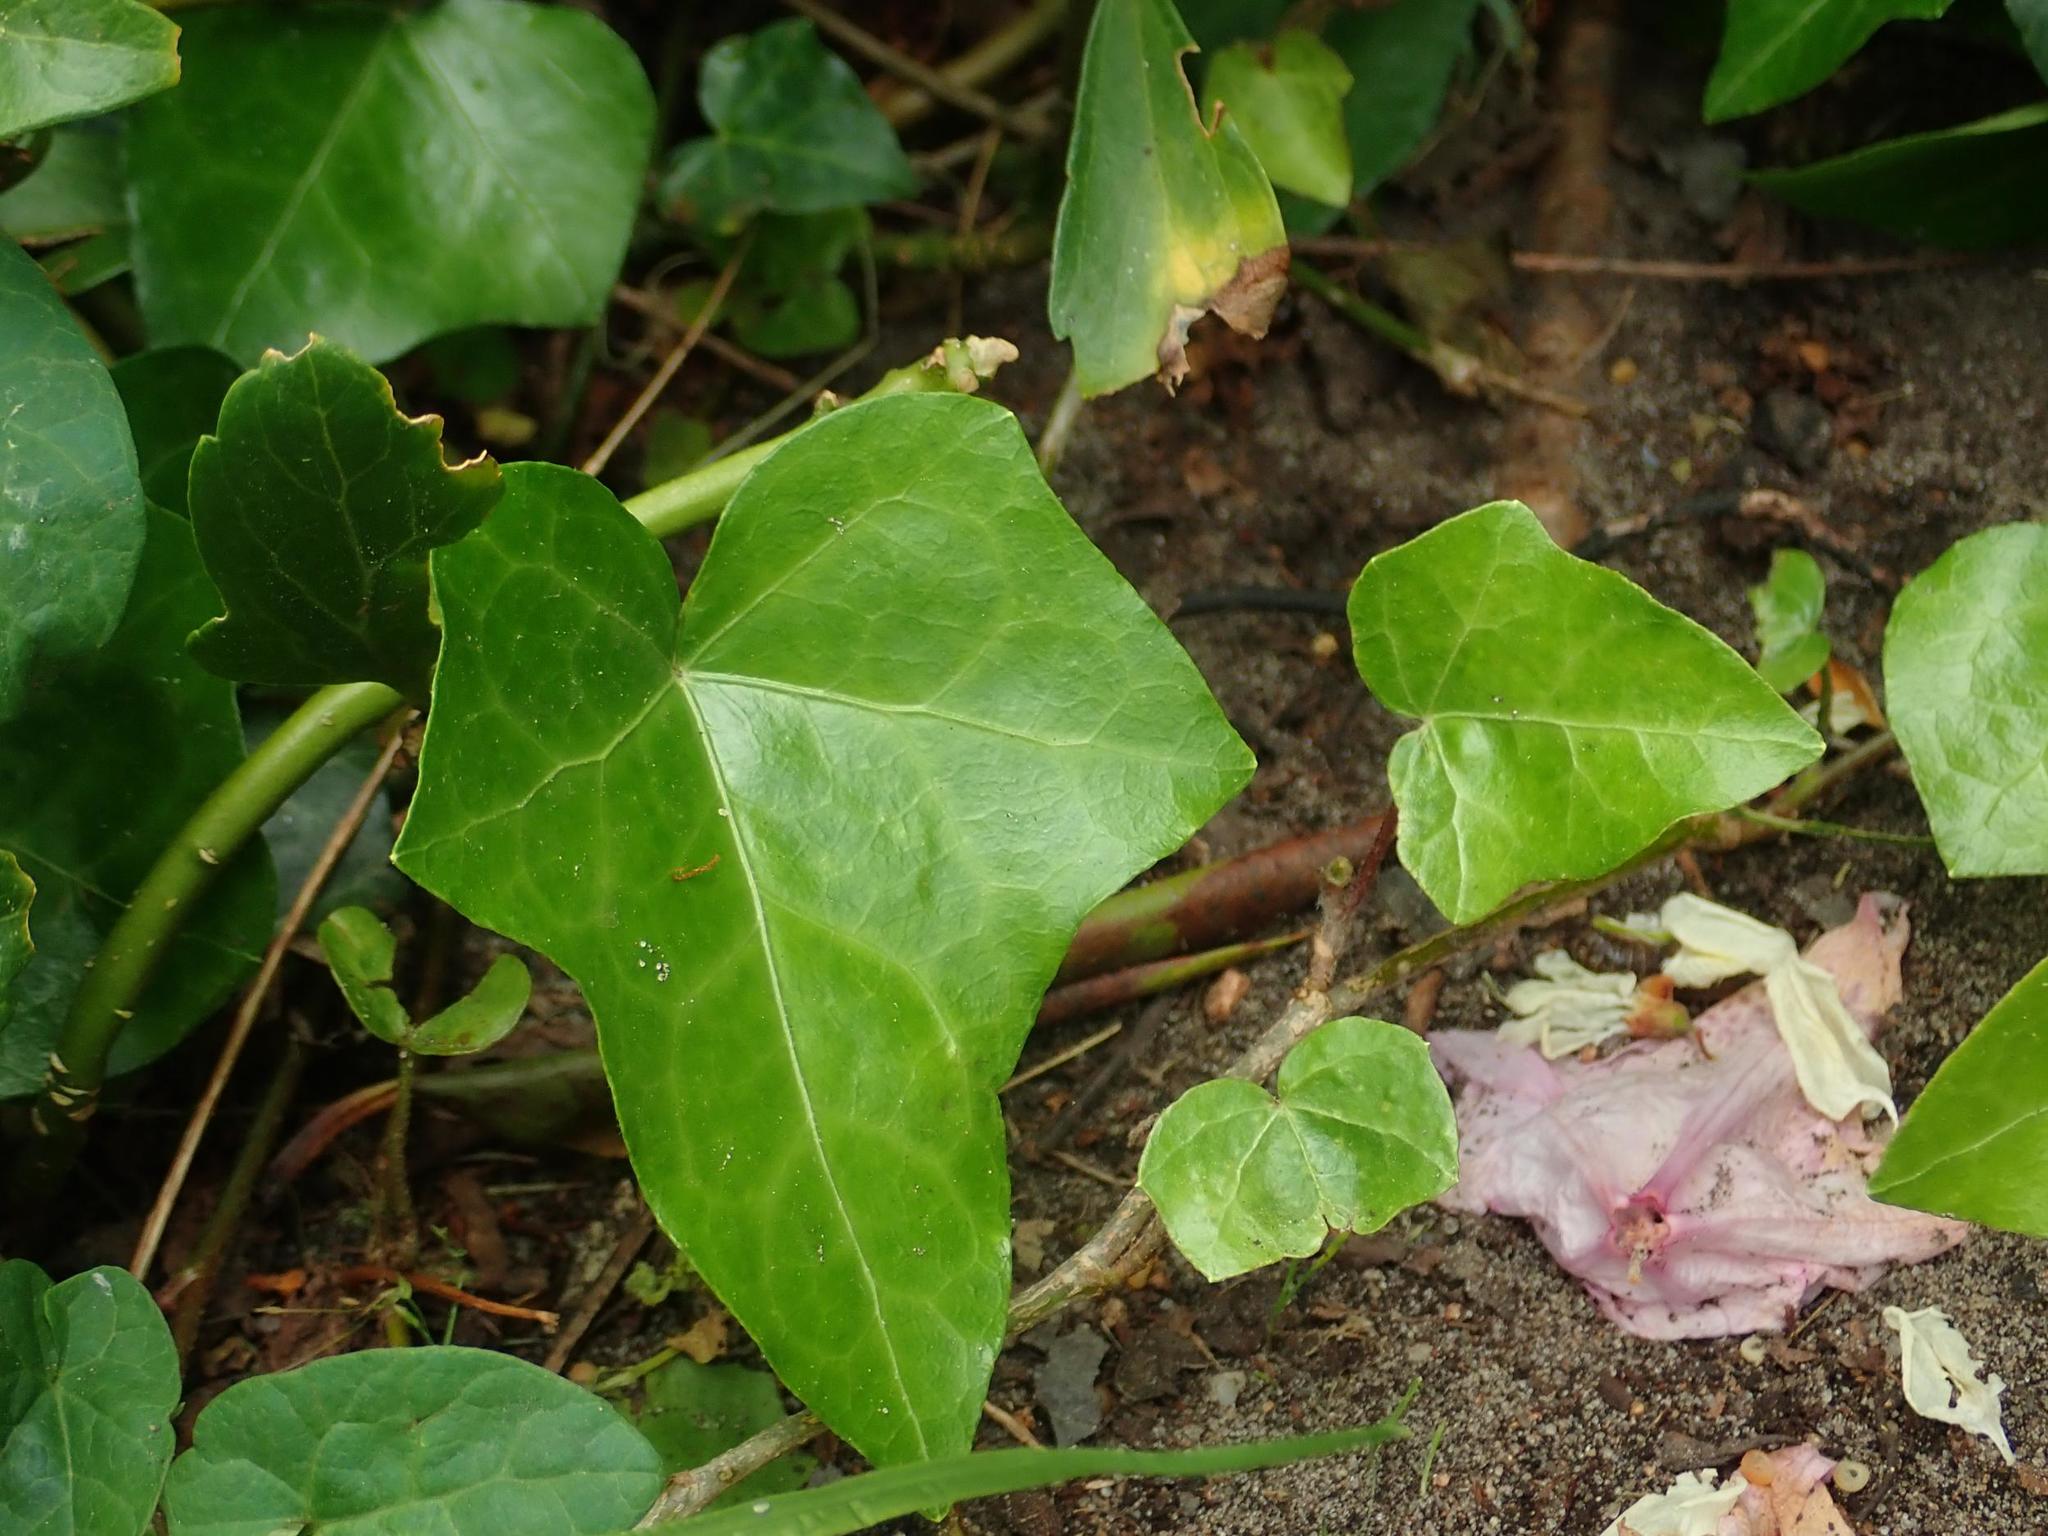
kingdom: Plantae
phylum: Tracheophyta
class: Magnoliopsida
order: Apiales
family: Araliaceae
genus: Hedera
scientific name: Hedera helix
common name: Ivy
